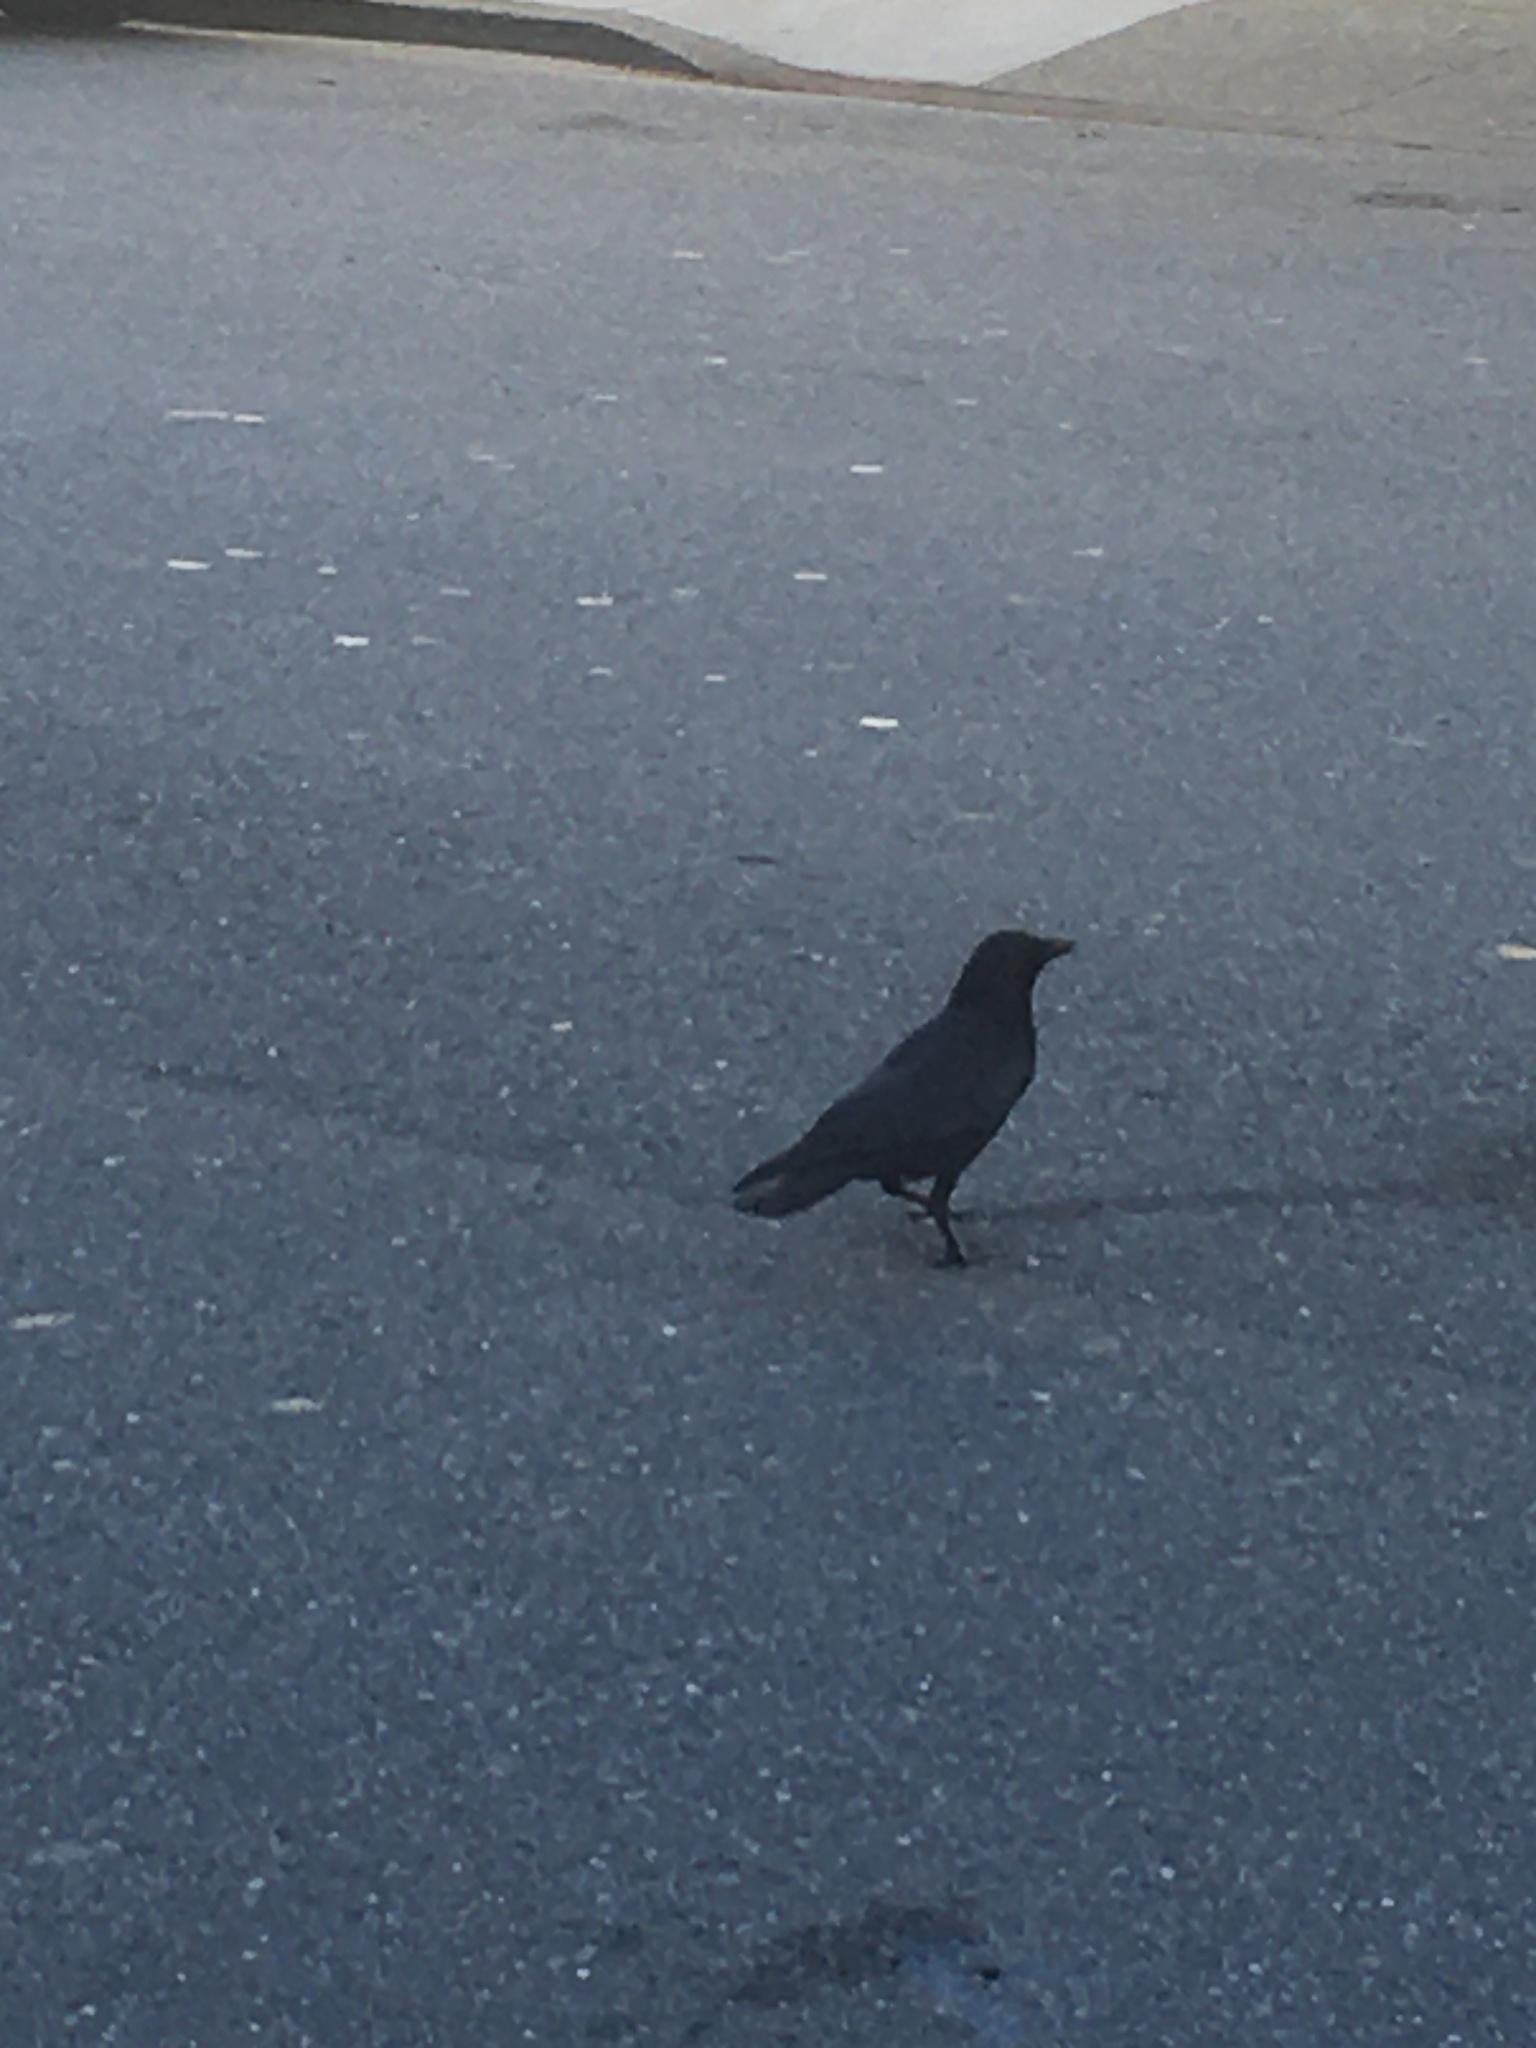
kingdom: Animalia
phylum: Chordata
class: Aves
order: Passeriformes
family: Corvidae
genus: Corvus
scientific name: Corvus brachyrhynchos
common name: American crow
